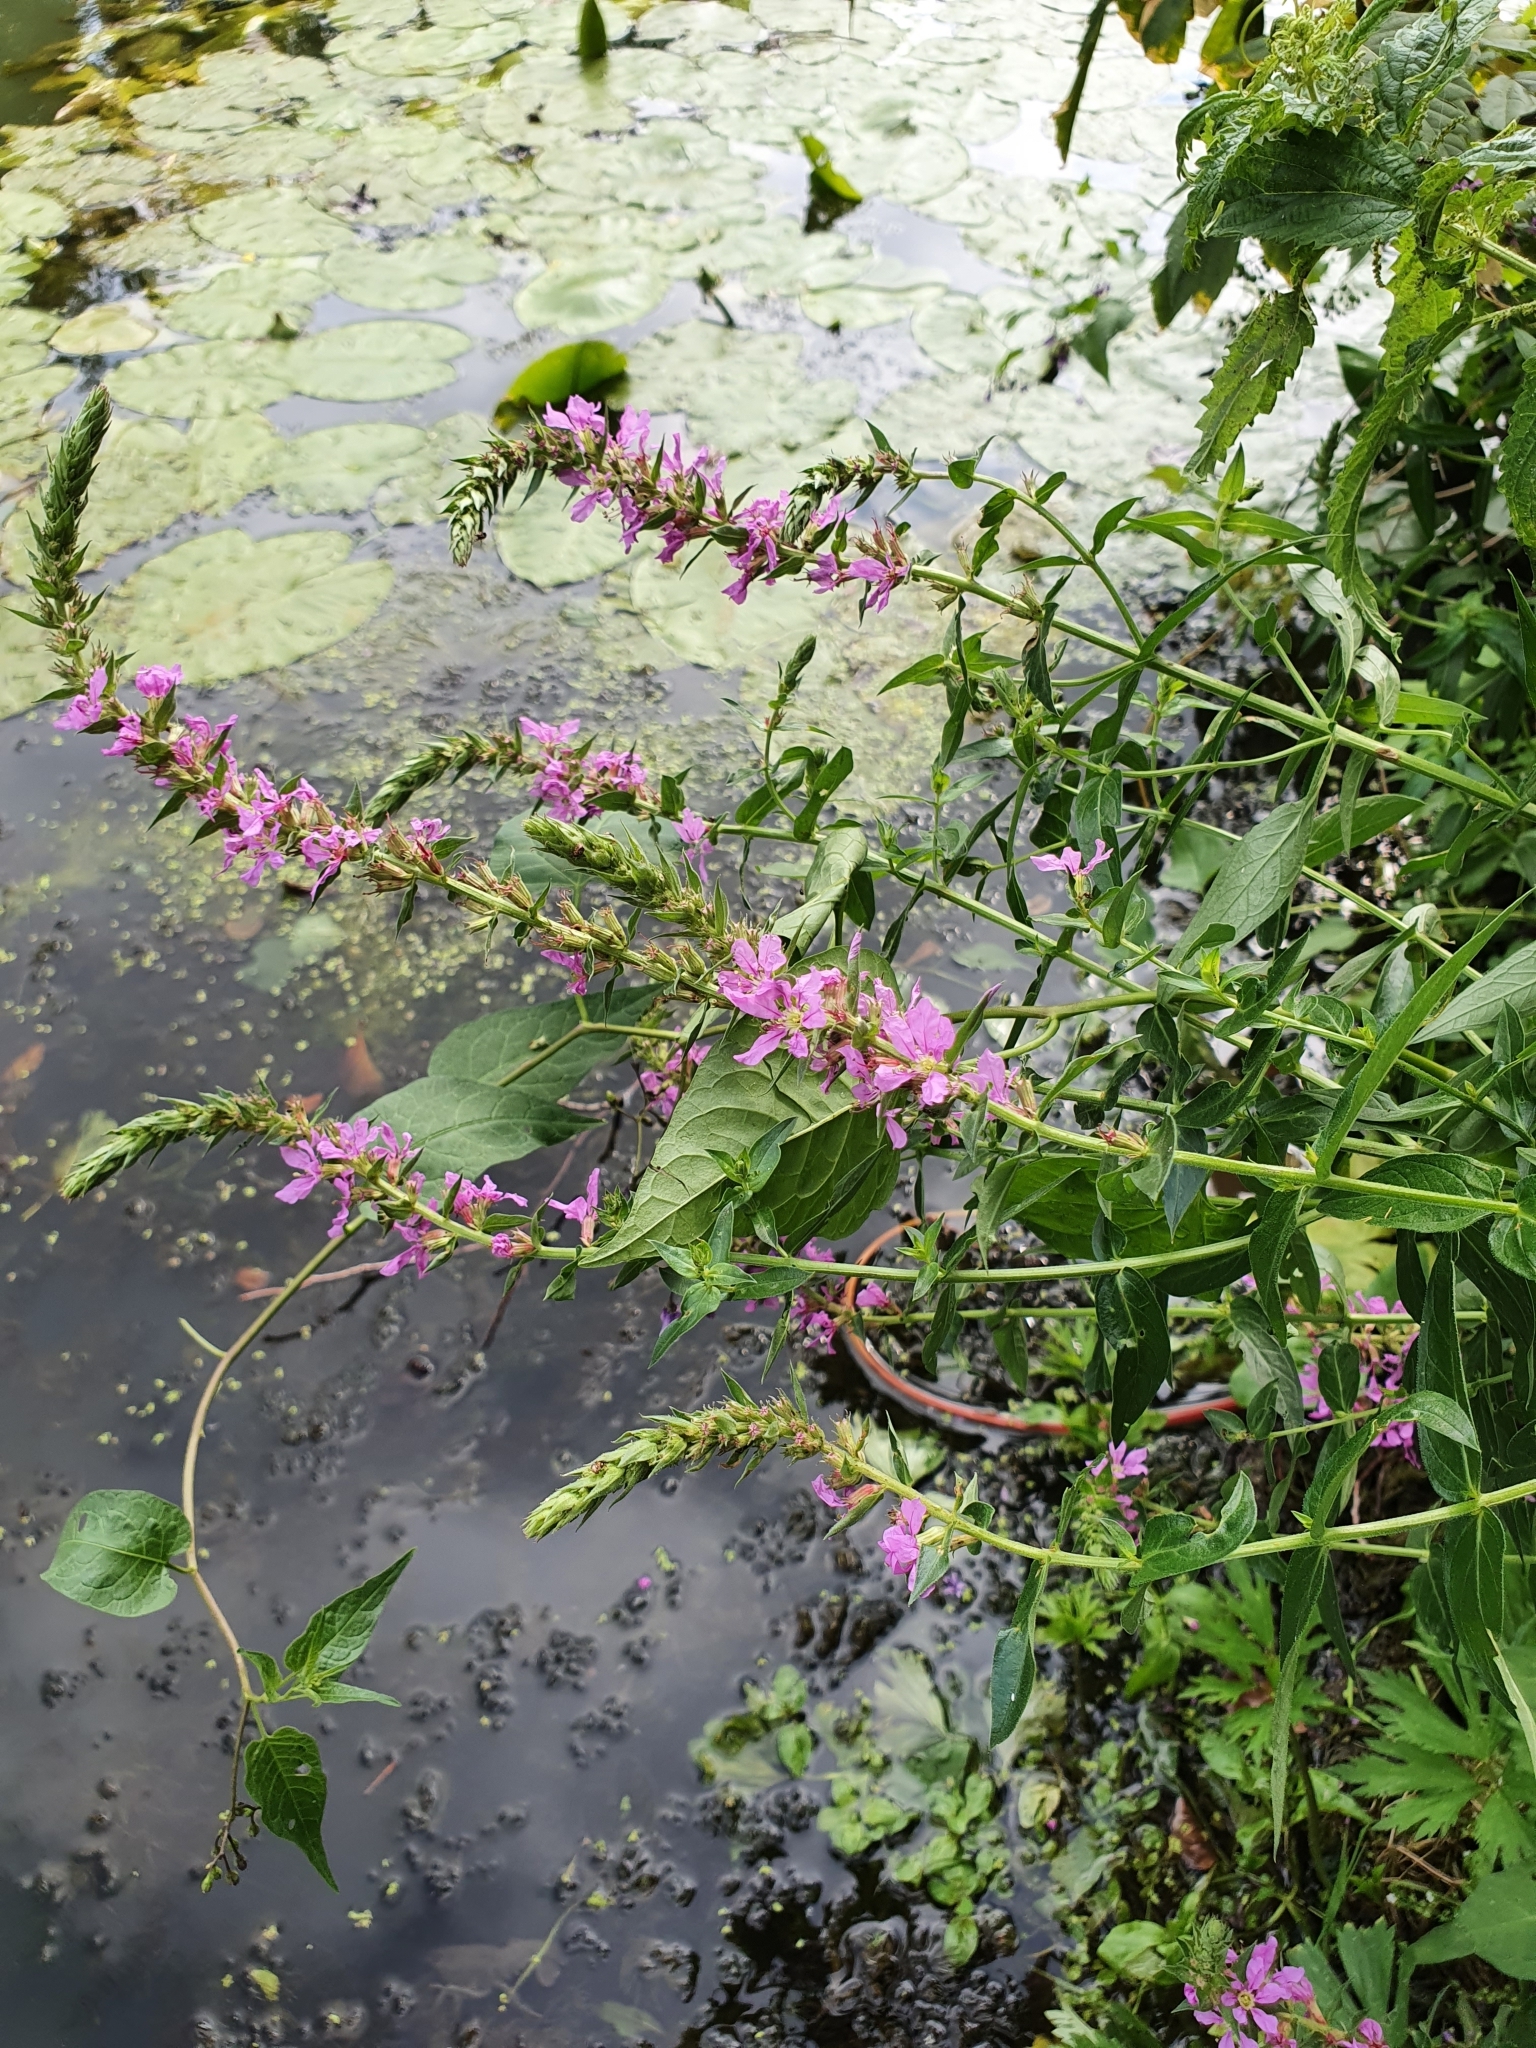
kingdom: Plantae
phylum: Tracheophyta
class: Magnoliopsida
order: Myrtales
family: Lythraceae
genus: Lythrum
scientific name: Lythrum salicaria
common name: Purple loosestrife
